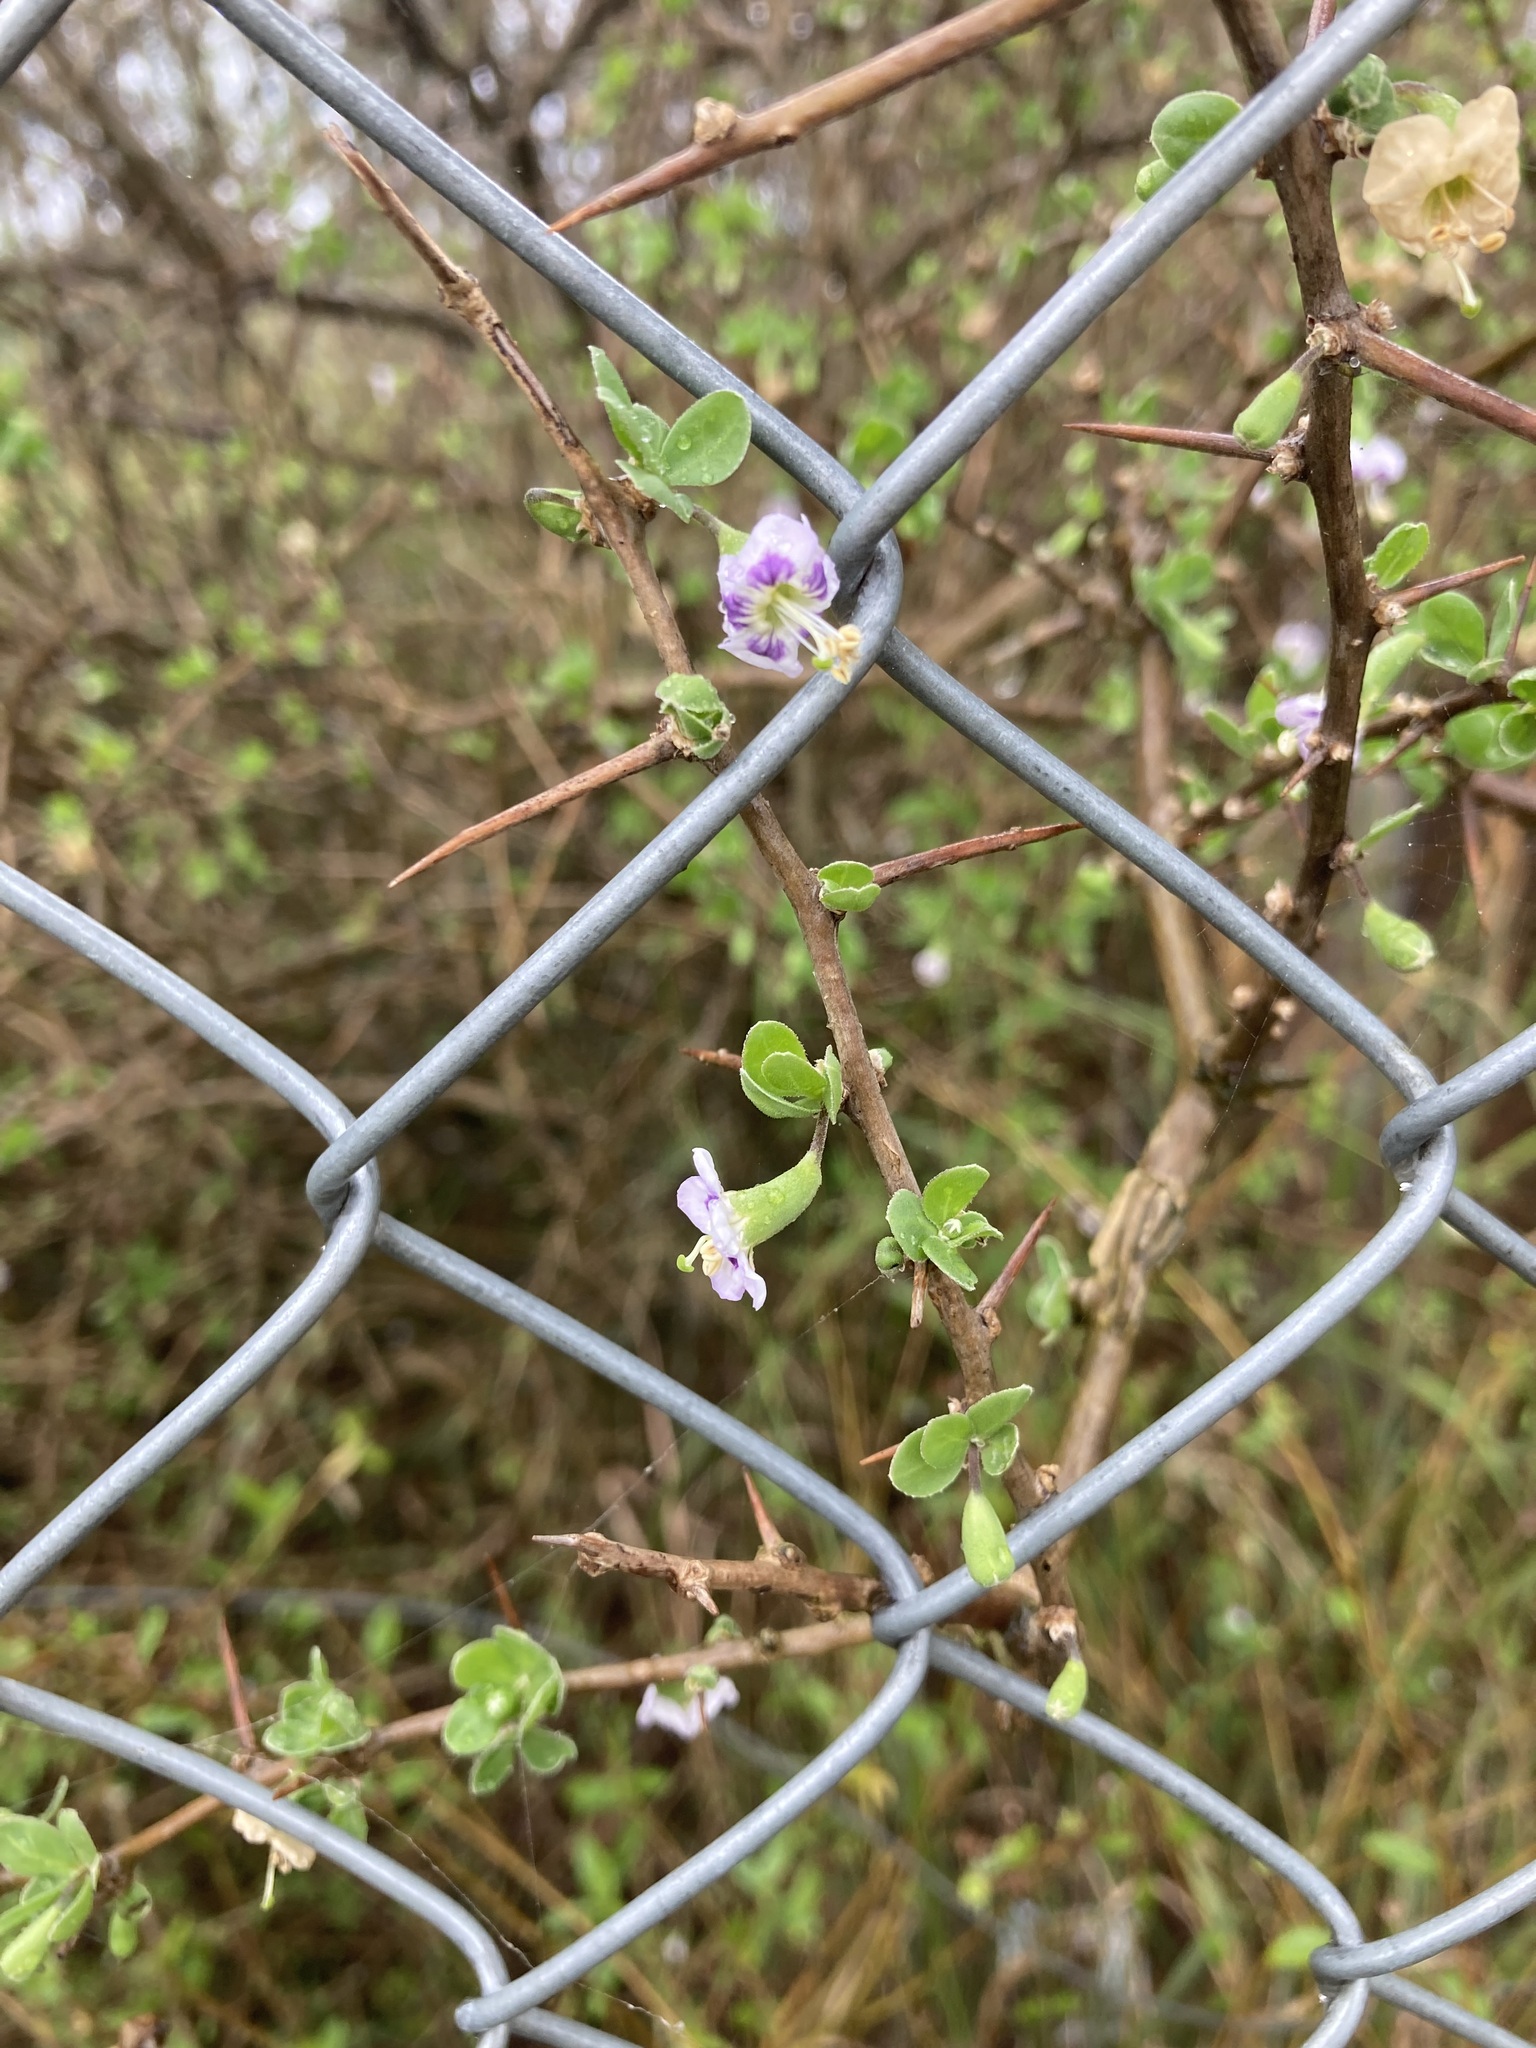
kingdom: Plantae
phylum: Tracheophyta
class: Magnoliopsida
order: Solanales
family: Solanaceae
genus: Lycium
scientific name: Lycium ferocissimum
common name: African boxthorn
